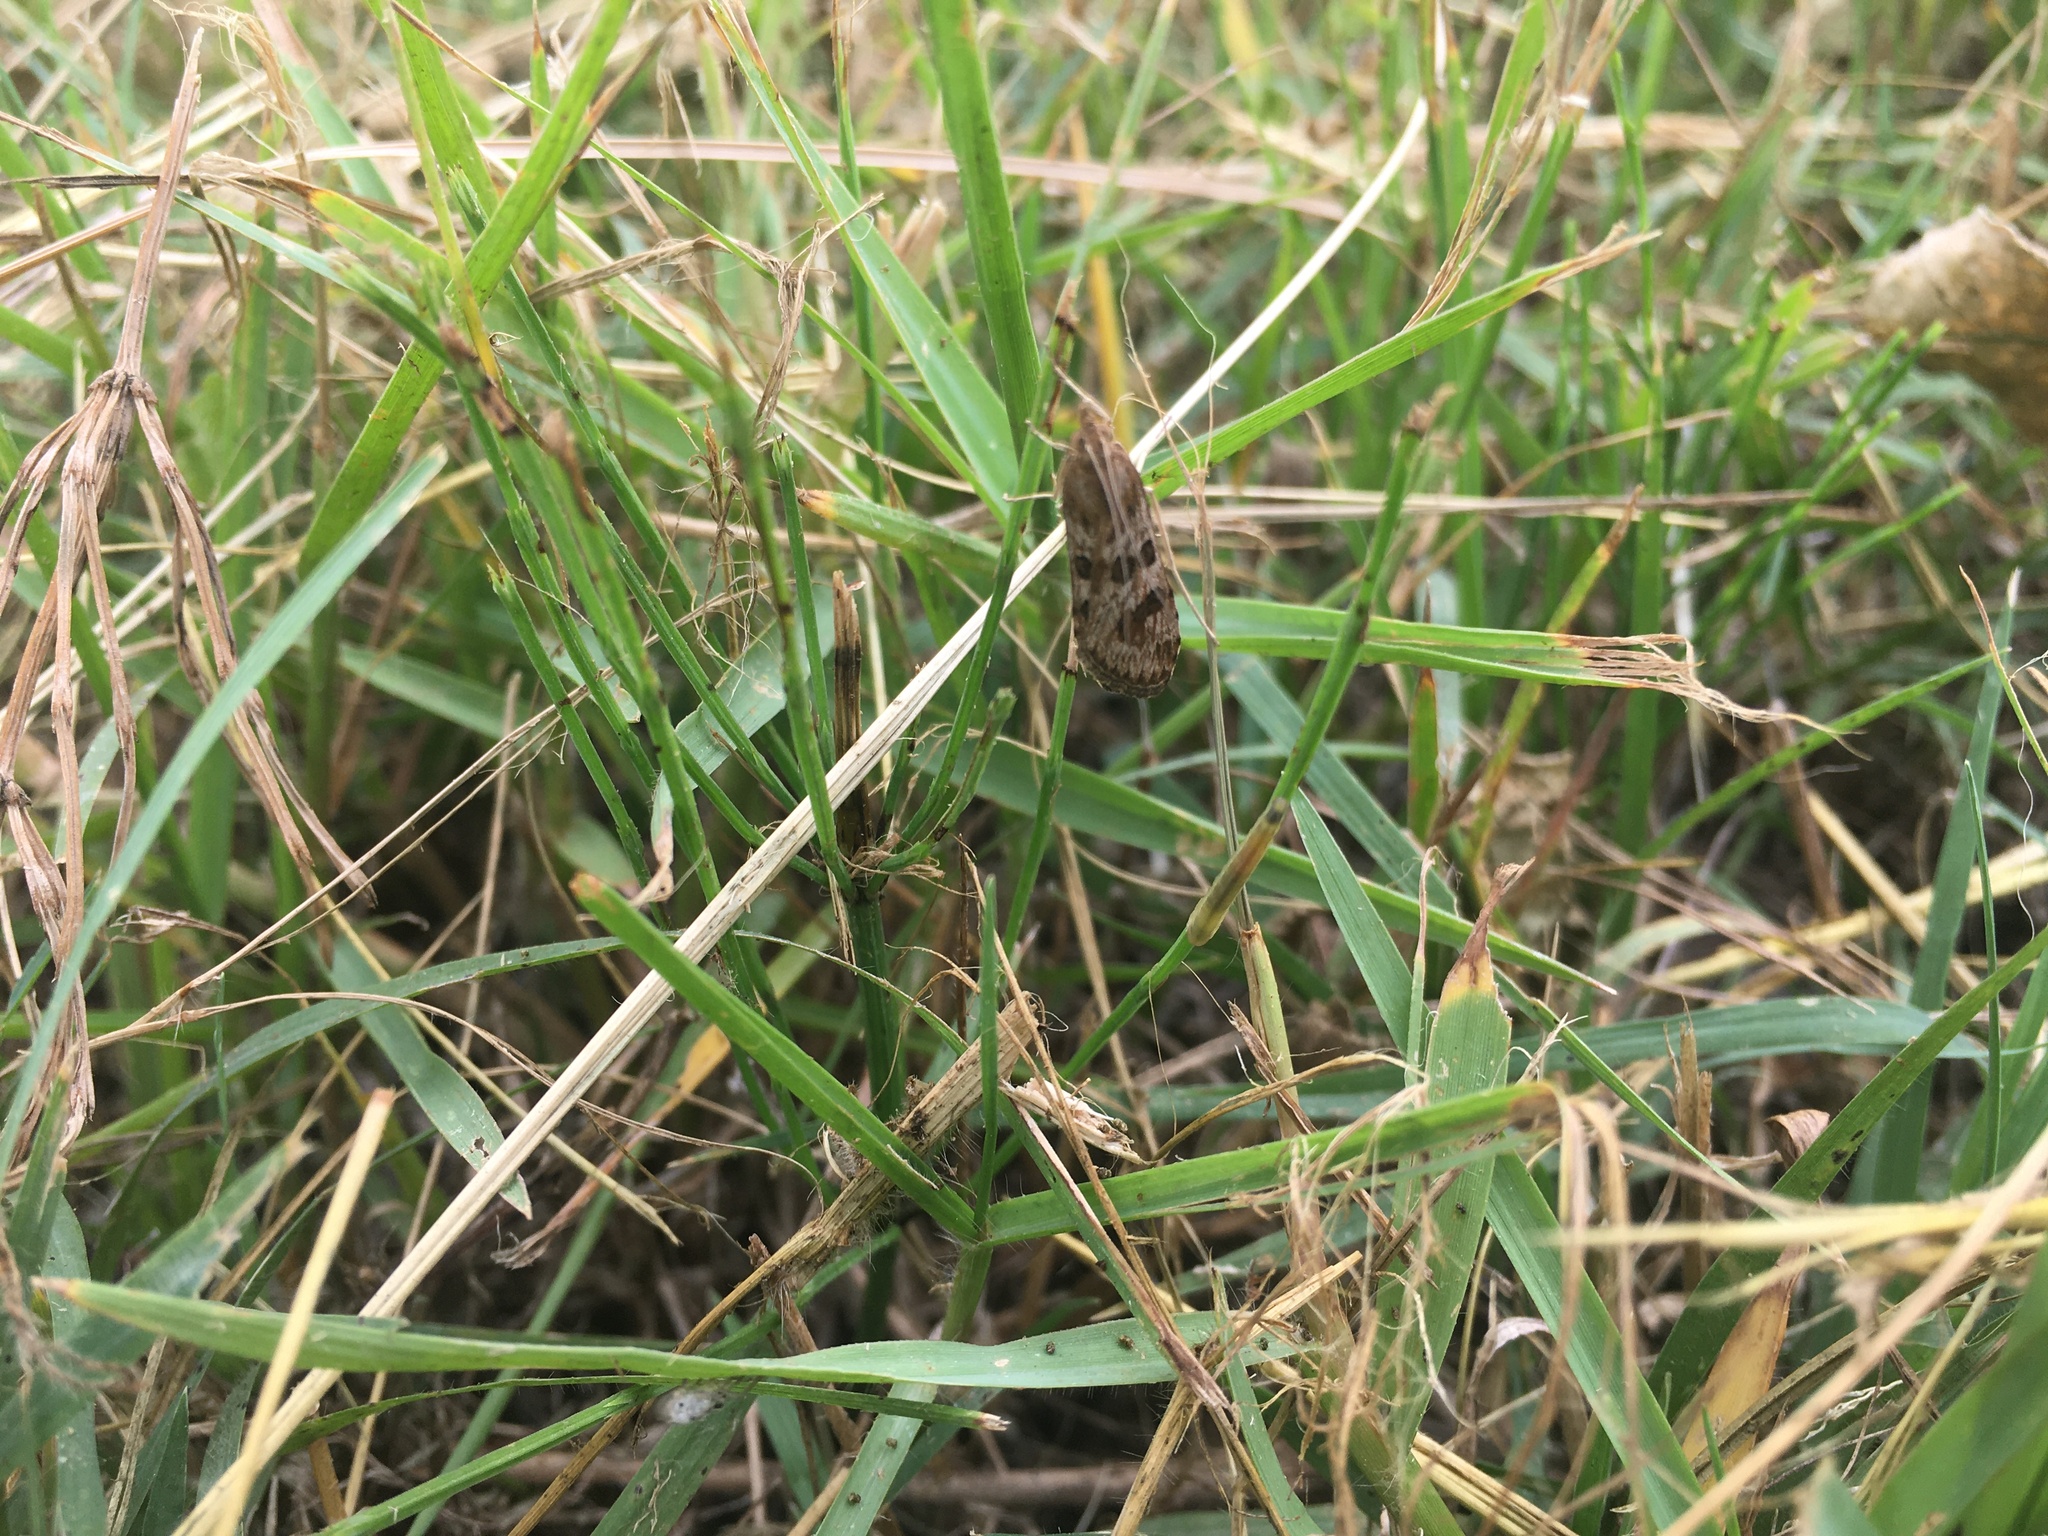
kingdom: Animalia
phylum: Arthropoda
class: Insecta
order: Lepidoptera
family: Crambidae
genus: Nomophila
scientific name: Nomophila noctuella
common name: Rush veneer
